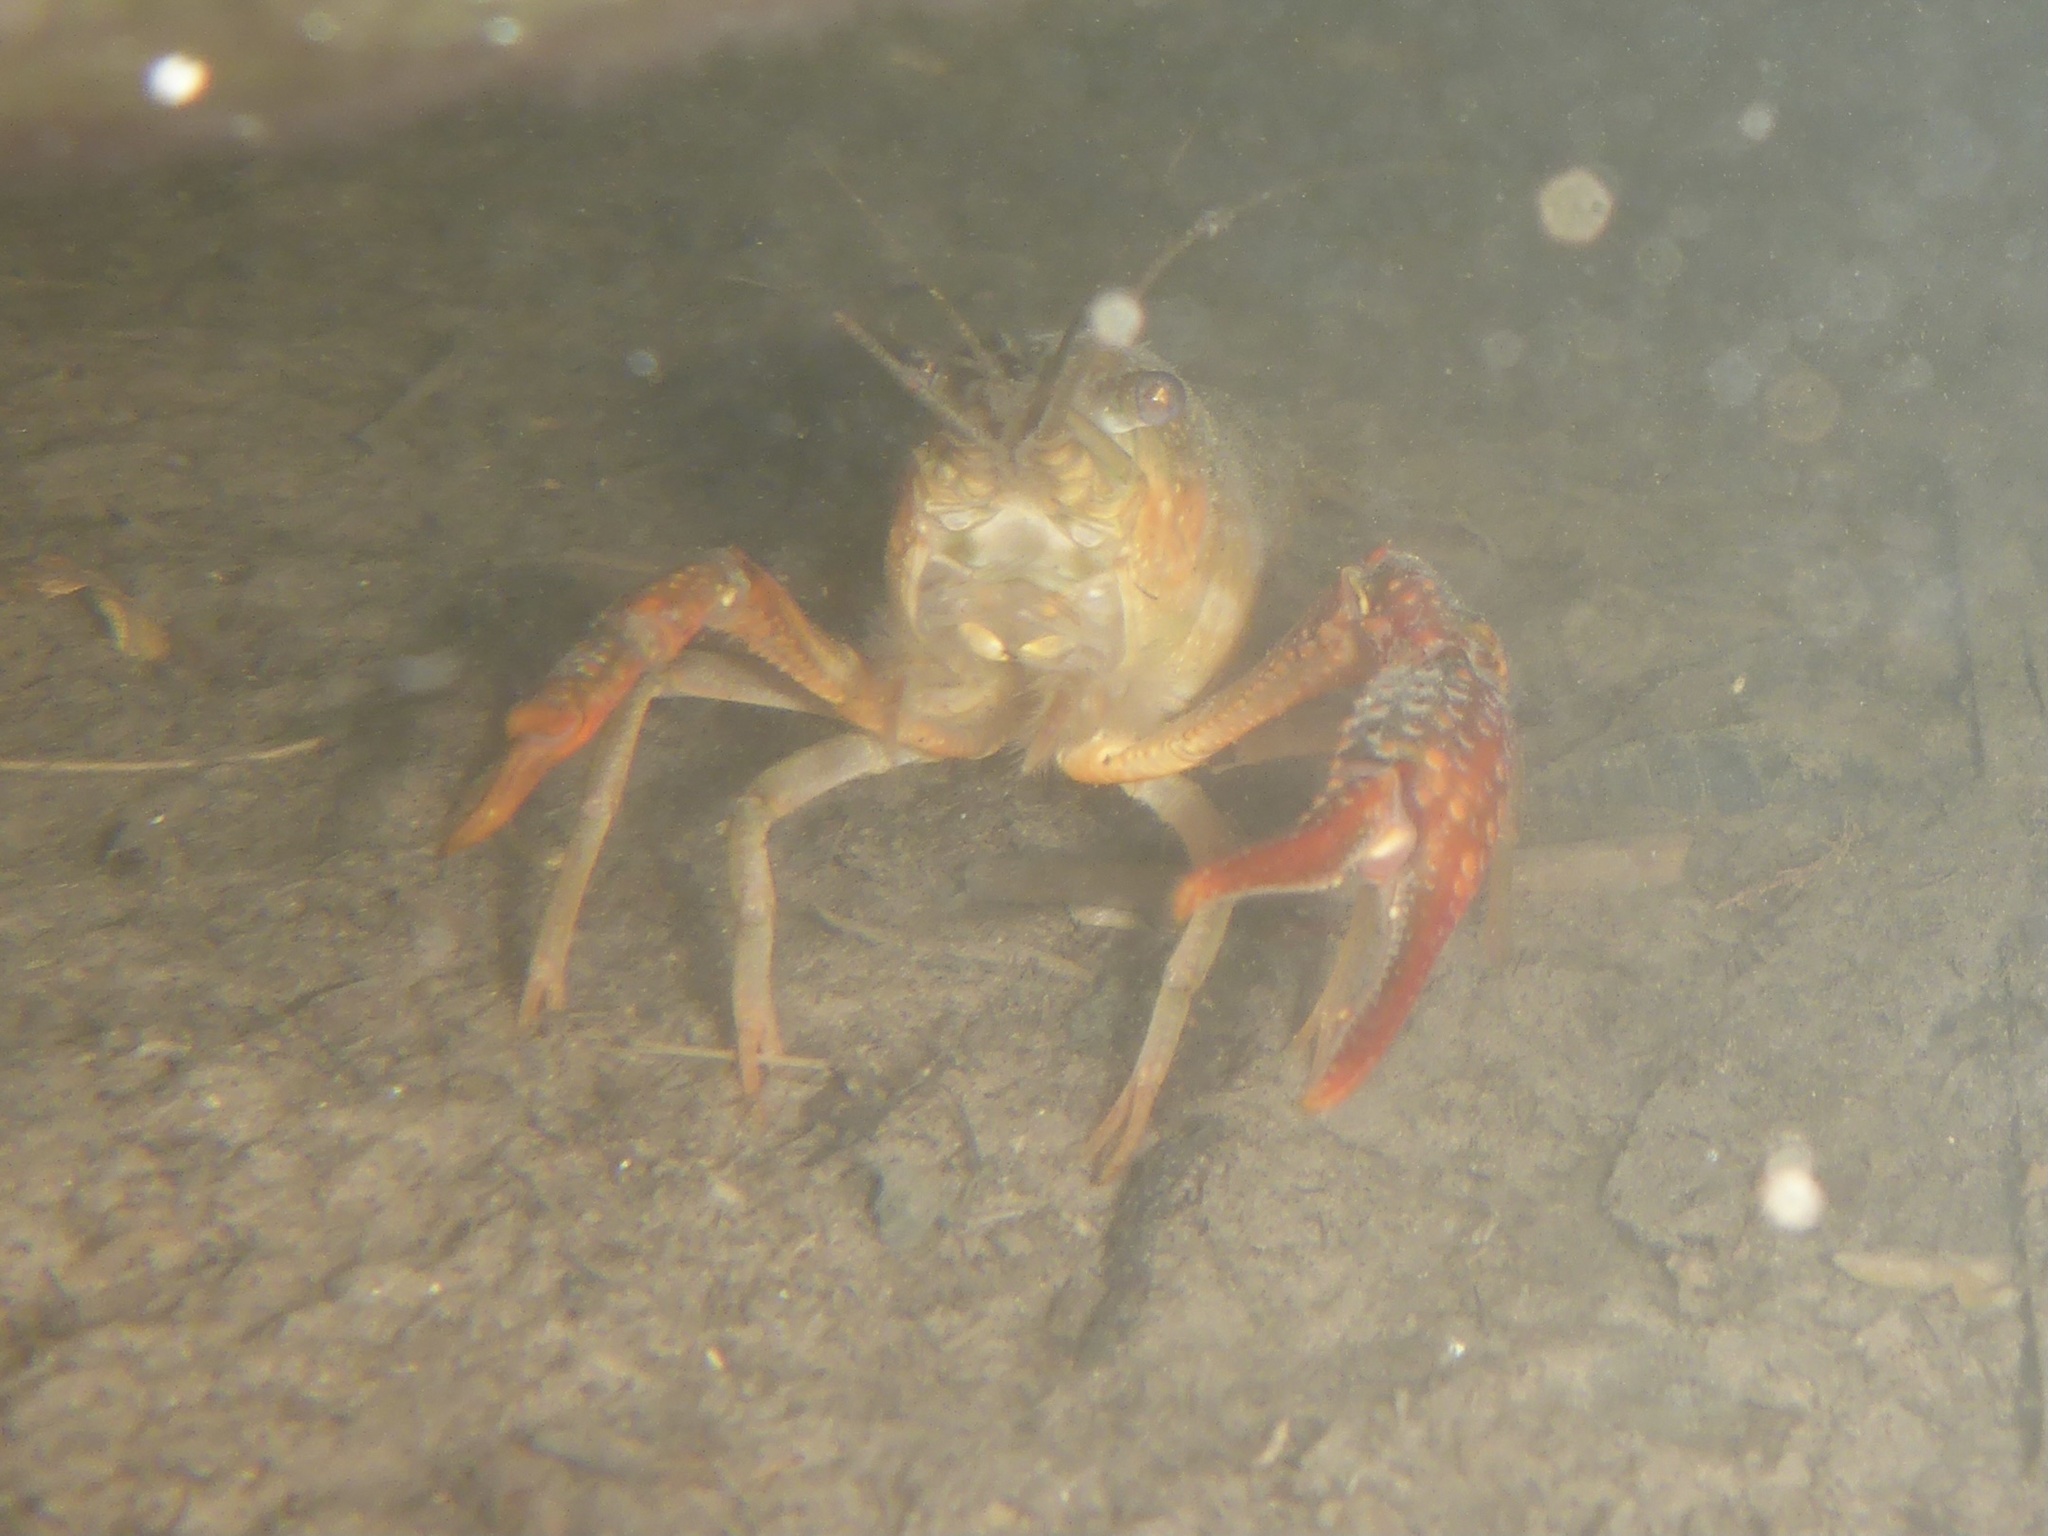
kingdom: Animalia
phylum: Arthropoda
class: Malacostraca
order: Decapoda
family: Cambaridae
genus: Procambarus
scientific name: Procambarus clarkii
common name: Red swamp crayfish
